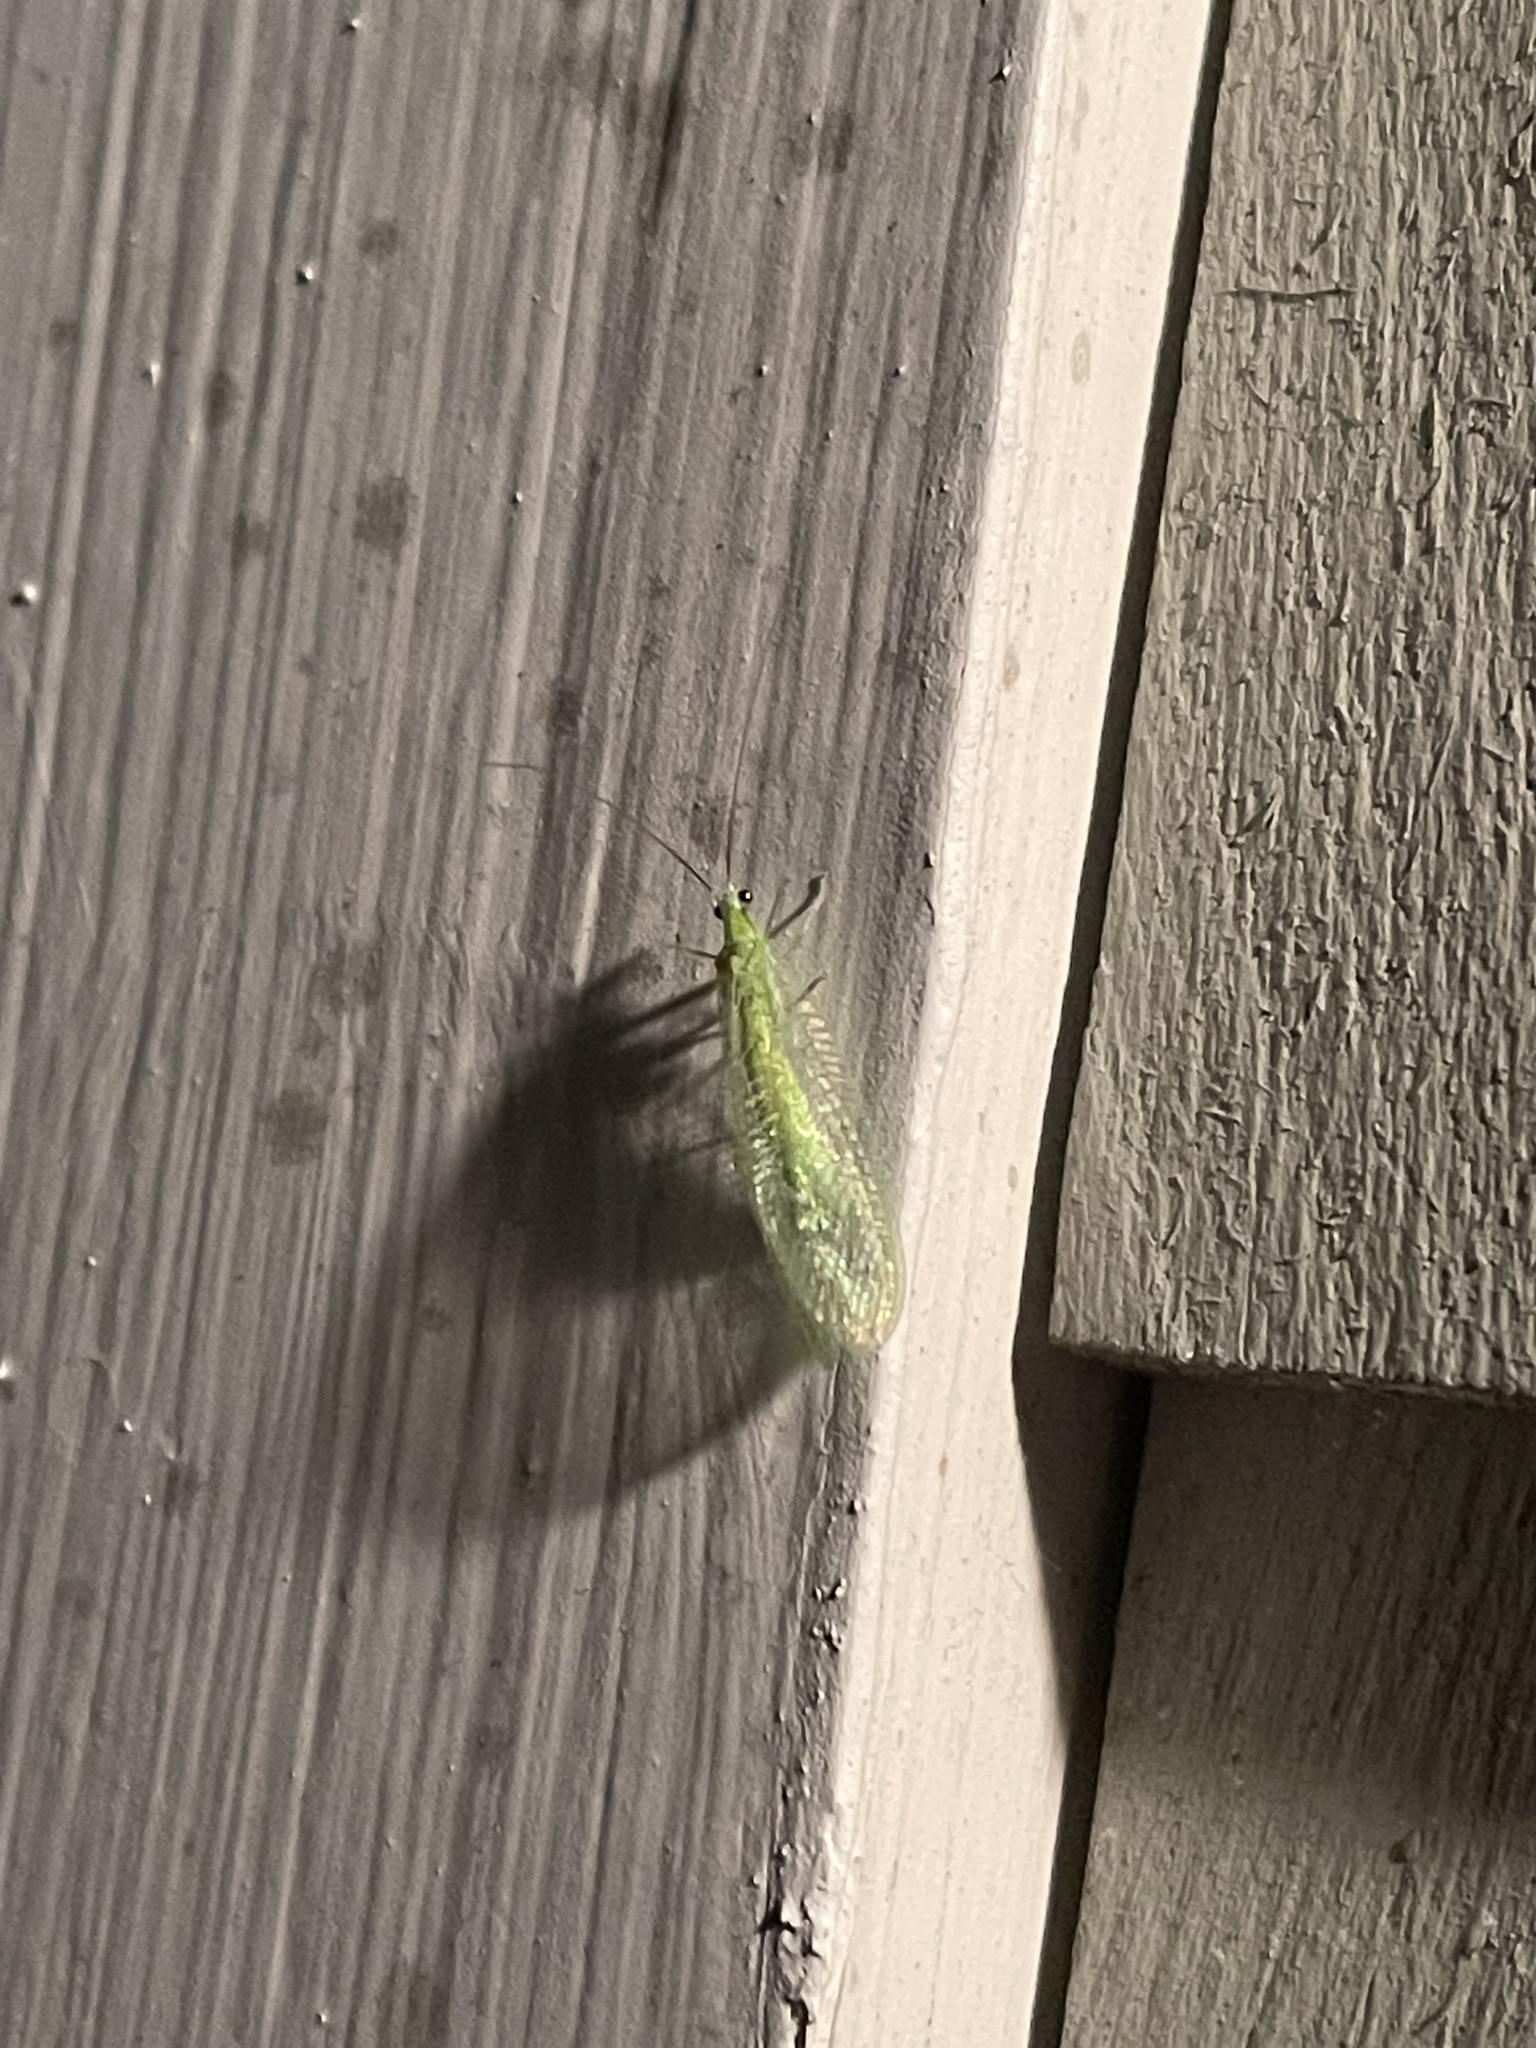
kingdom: Animalia
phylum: Arthropoda
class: Insecta
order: Neuroptera
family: Chrysopidae
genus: Chrysopa
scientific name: Chrysopa nigricornis
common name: Black-horned green lacewing
